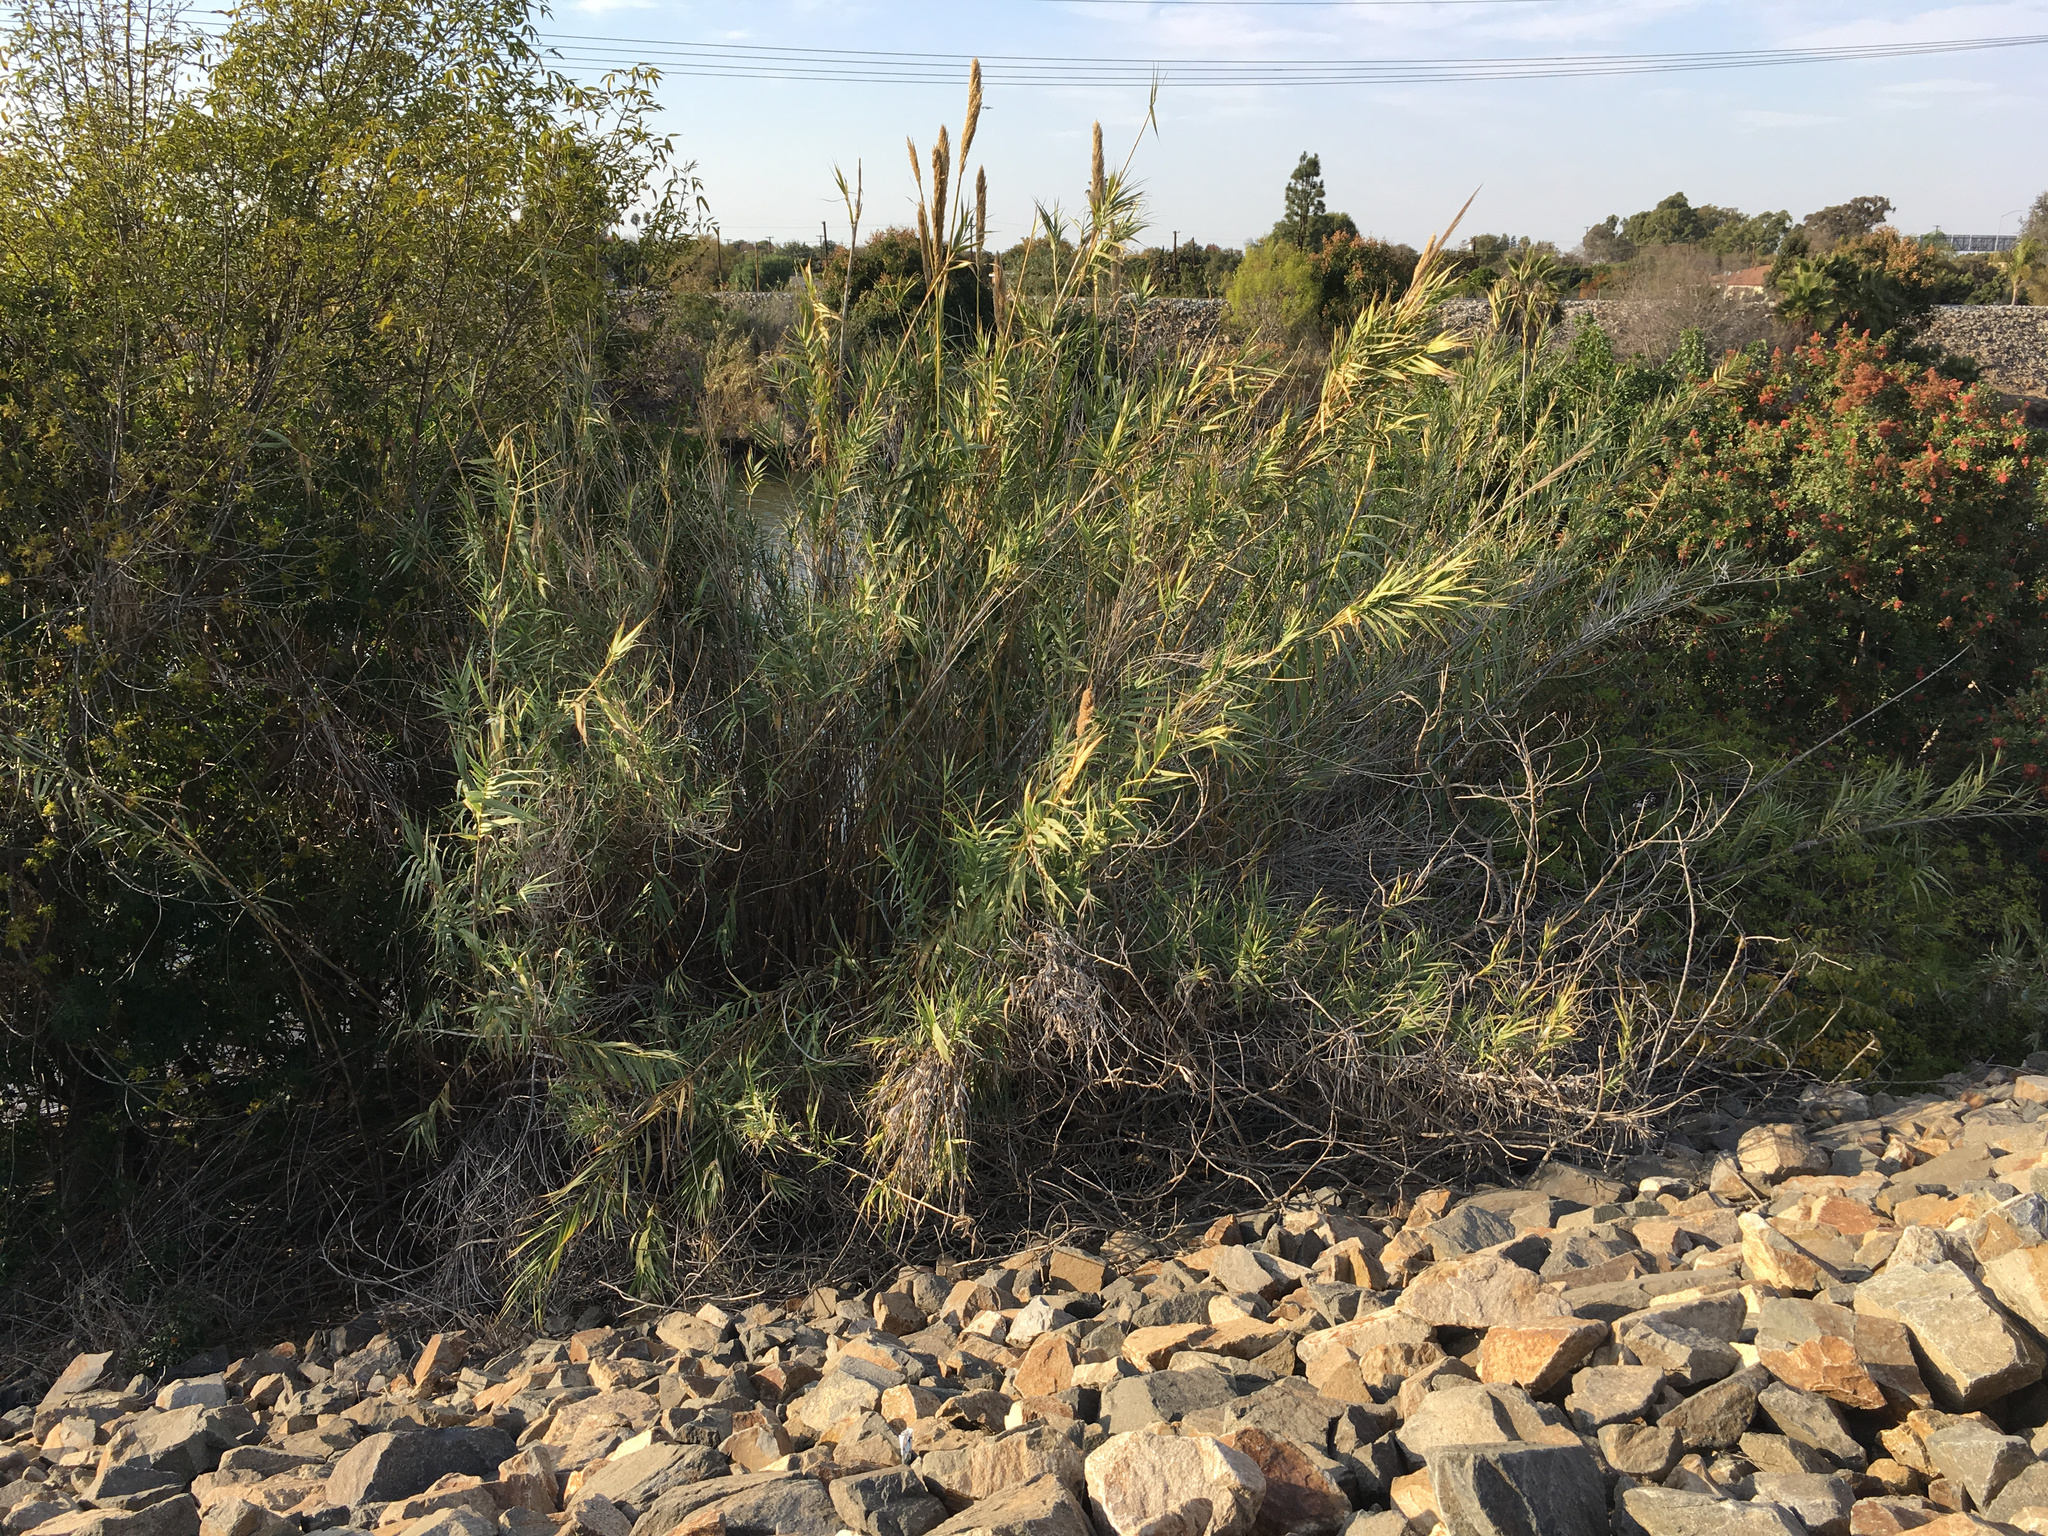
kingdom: Plantae
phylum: Tracheophyta
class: Liliopsida
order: Poales
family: Poaceae
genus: Arundo
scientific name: Arundo donax
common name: Giant reed
